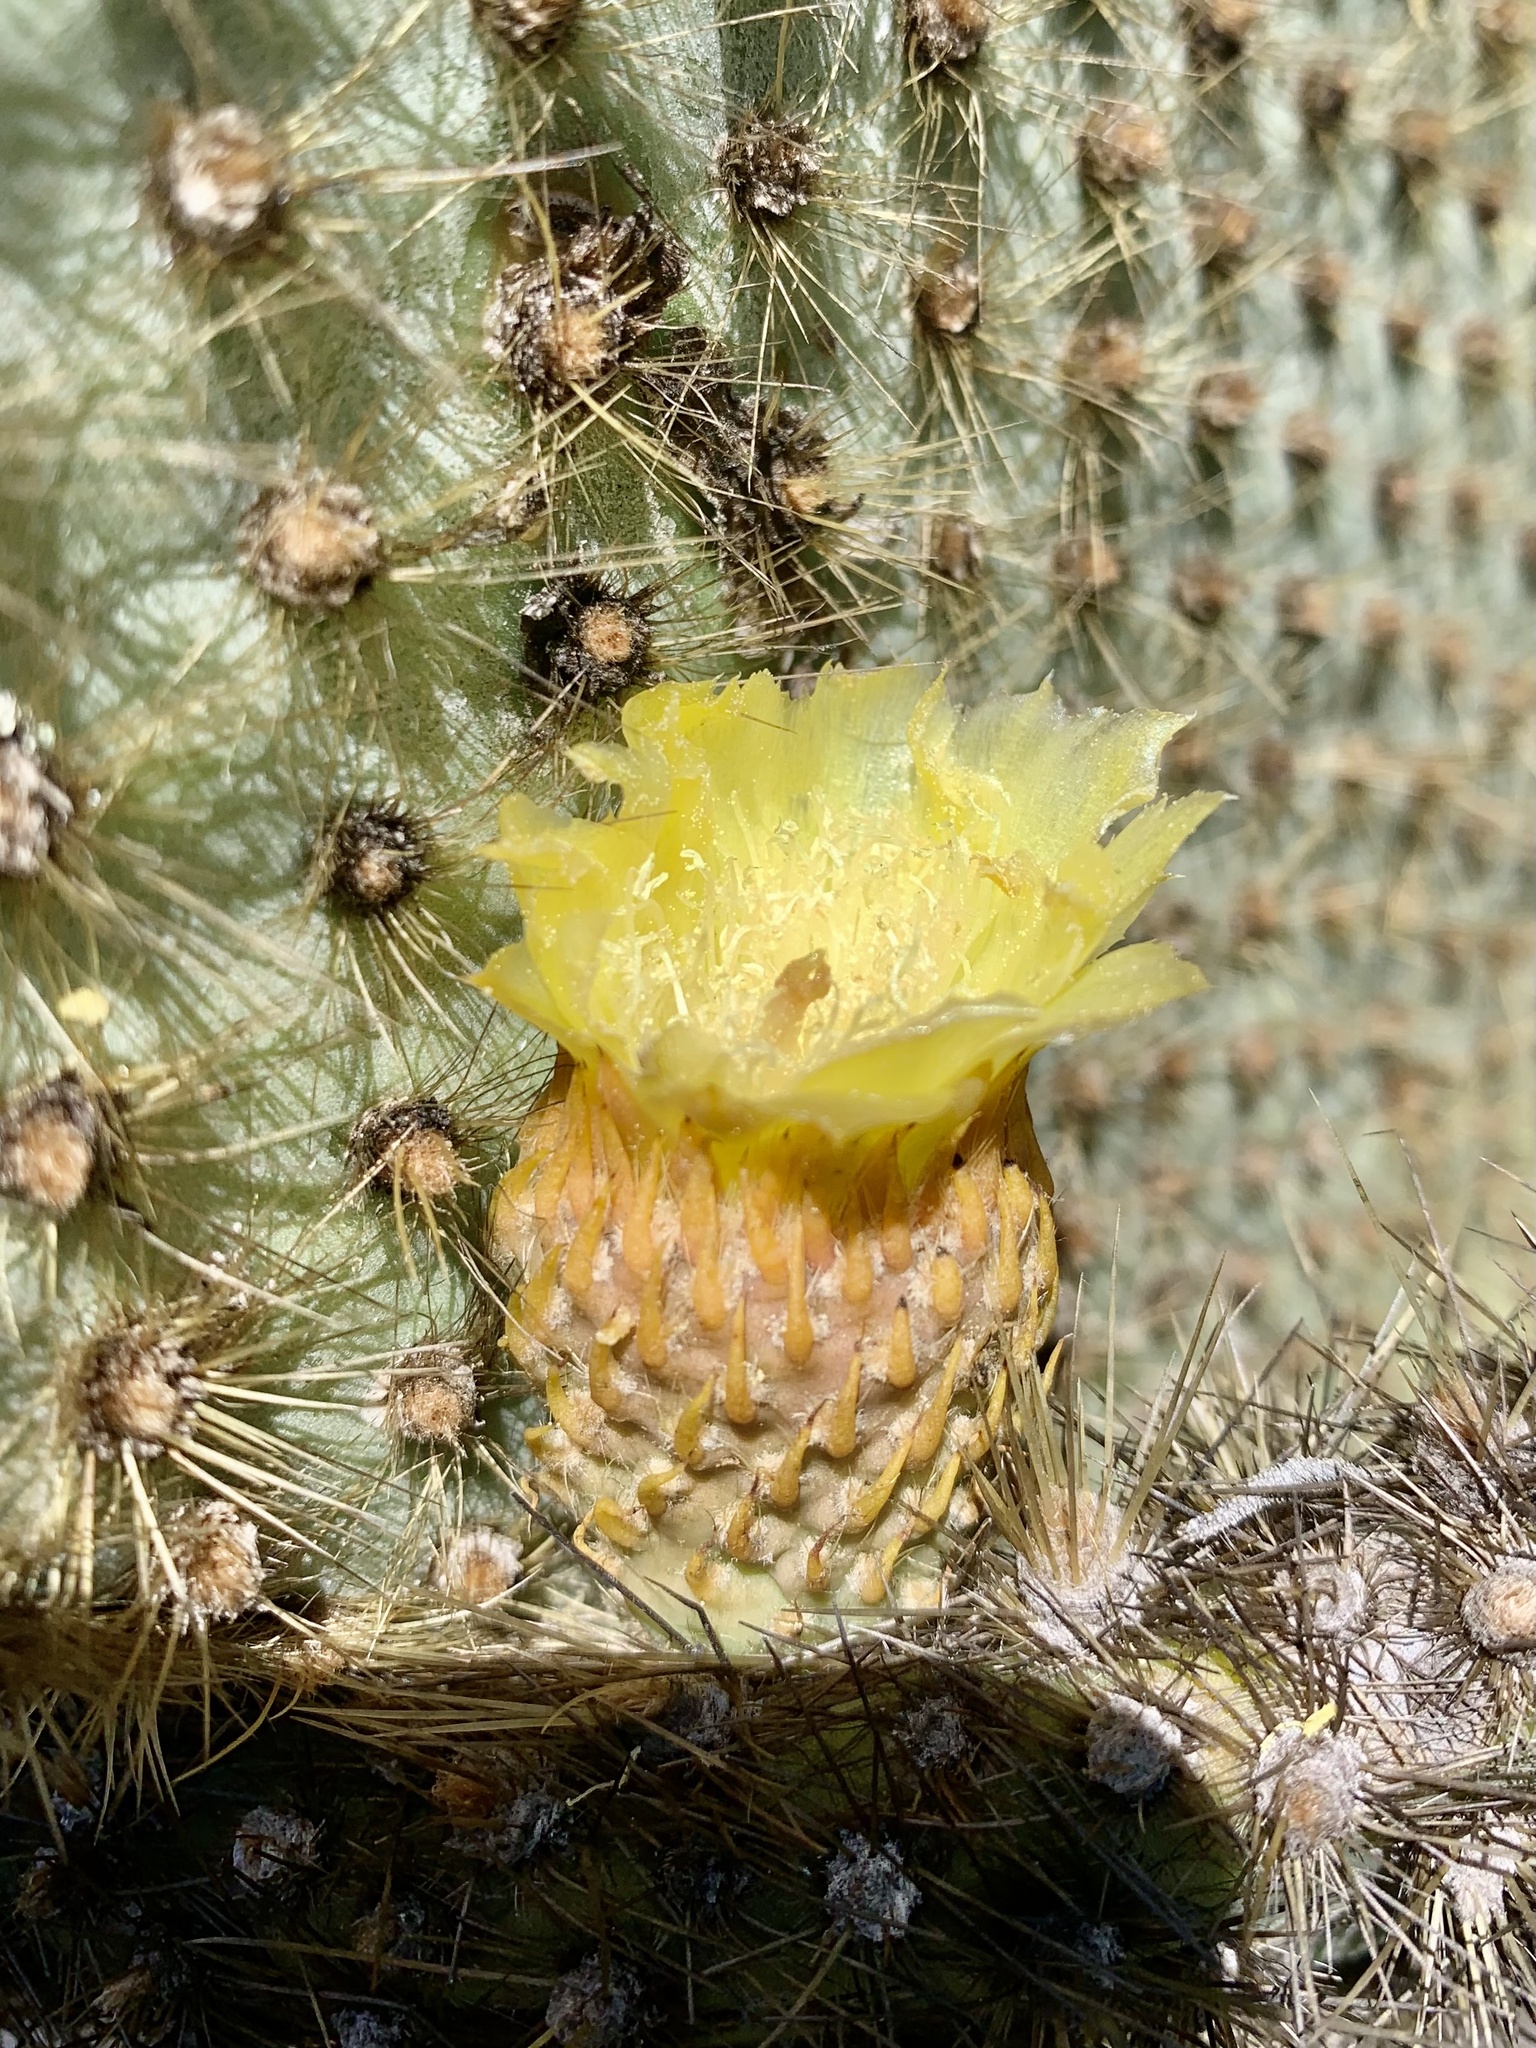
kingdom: Plantae
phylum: Tracheophyta
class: Magnoliopsida
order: Caryophyllales
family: Cactaceae
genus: Opuntia
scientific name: Opuntia galapageia
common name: Galápagos prickly pear
